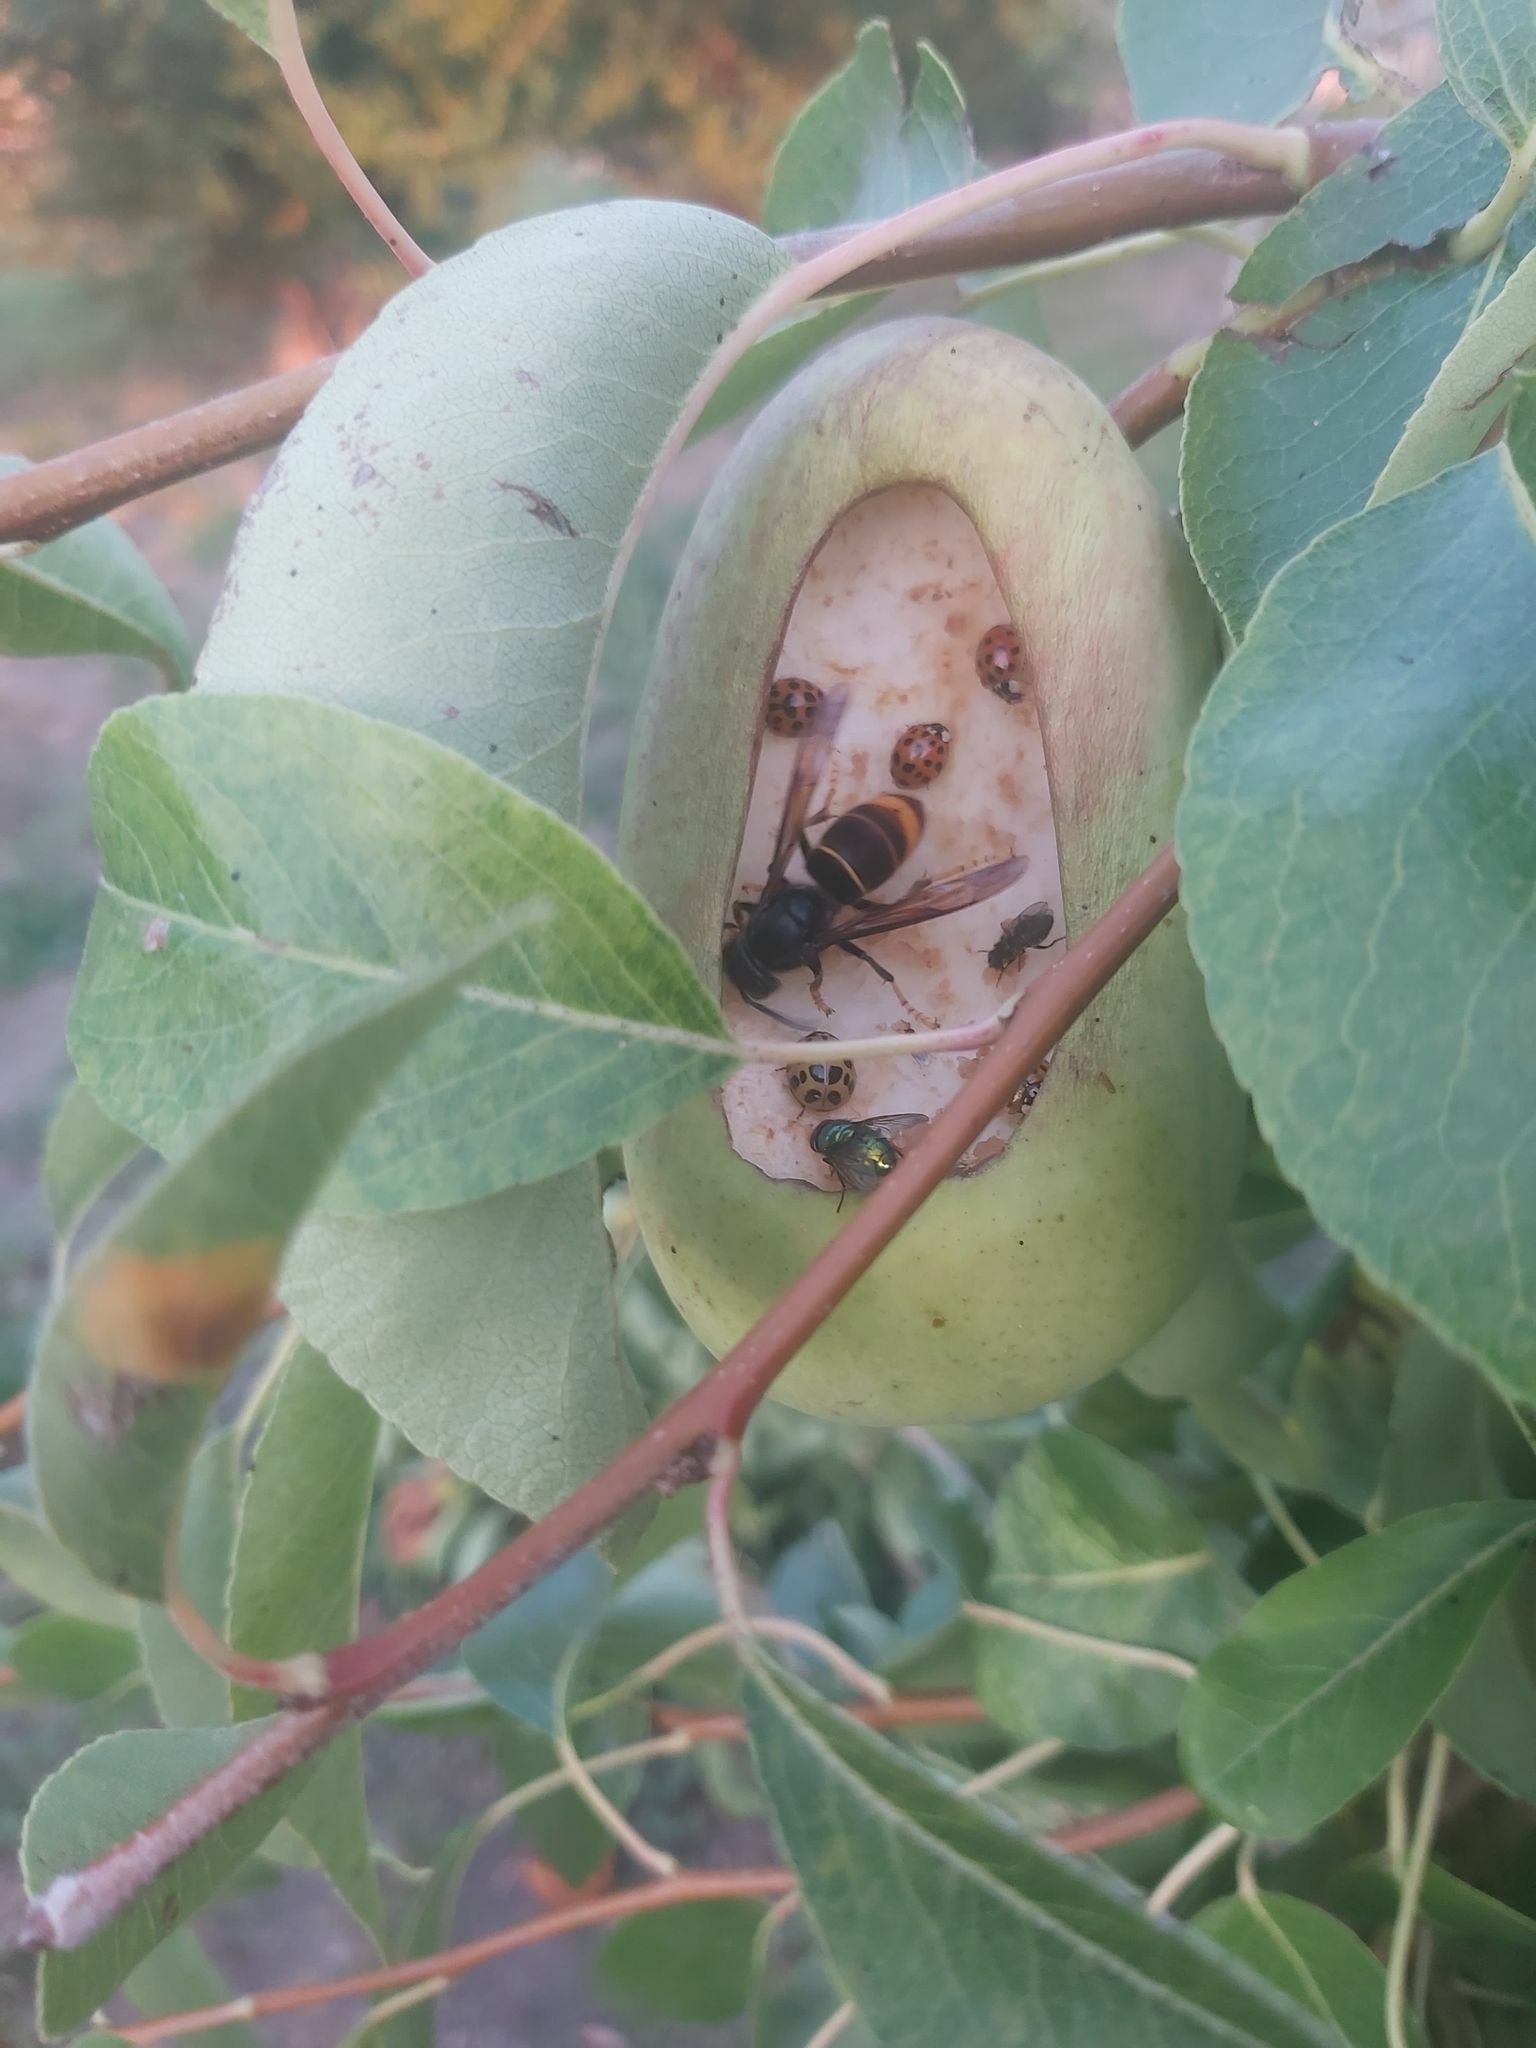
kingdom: Animalia
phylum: Arthropoda
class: Insecta
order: Hymenoptera
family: Vespidae
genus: Vespa
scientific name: Vespa velutina
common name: Asian hornet
